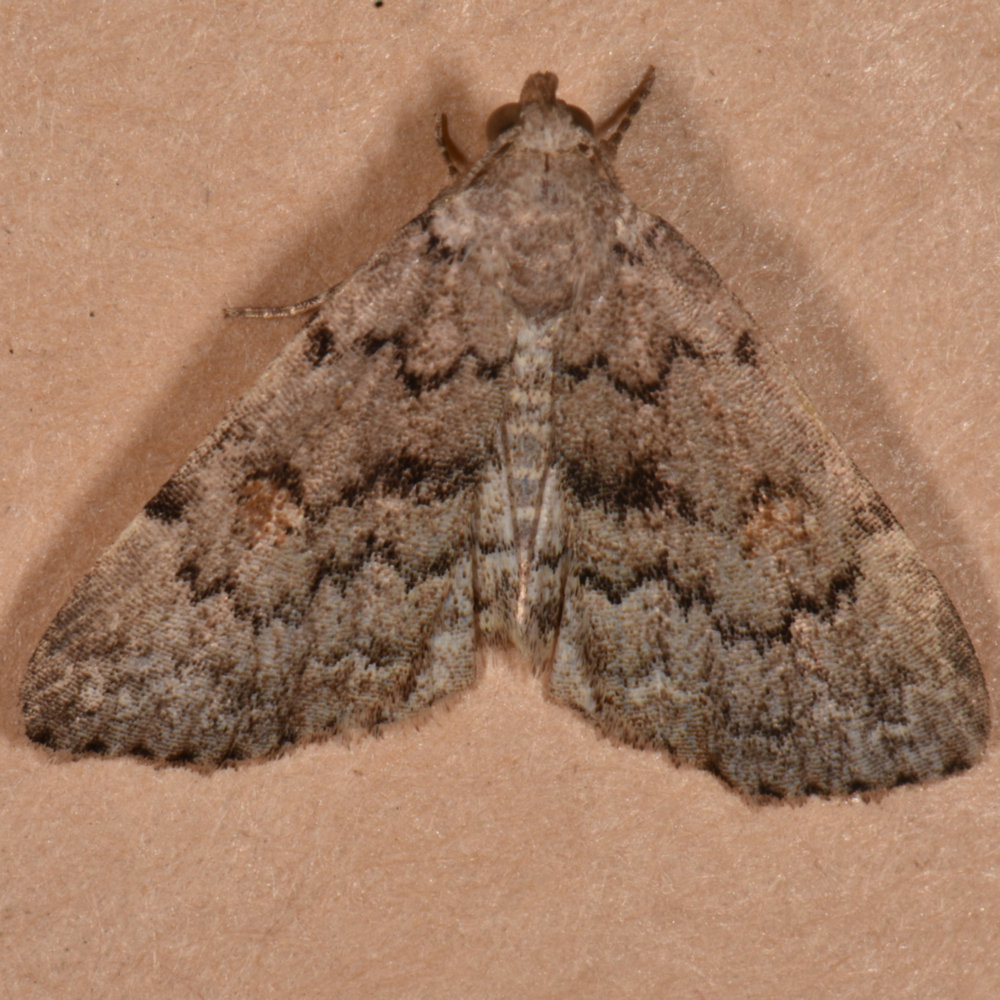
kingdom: Animalia
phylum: Arthropoda
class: Insecta
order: Lepidoptera
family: Erebidae
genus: Idia
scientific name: Idia aemula
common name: Common idia moth
